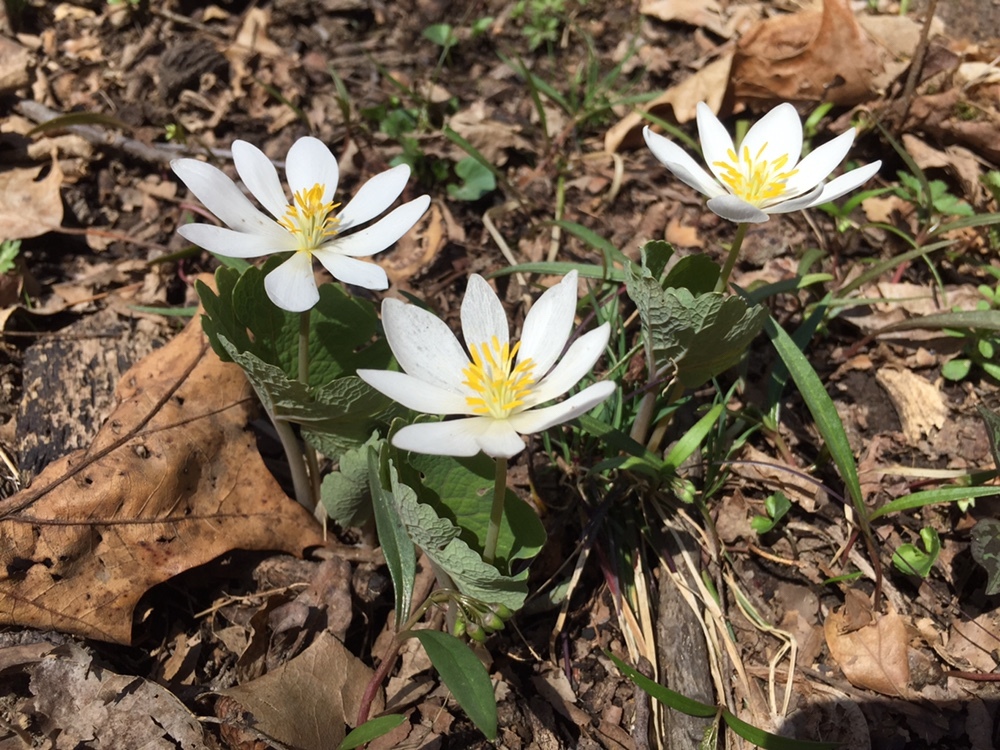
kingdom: Plantae
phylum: Tracheophyta
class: Magnoliopsida
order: Ranunculales
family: Papaveraceae
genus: Sanguinaria
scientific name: Sanguinaria canadensis
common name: Bloodroot
